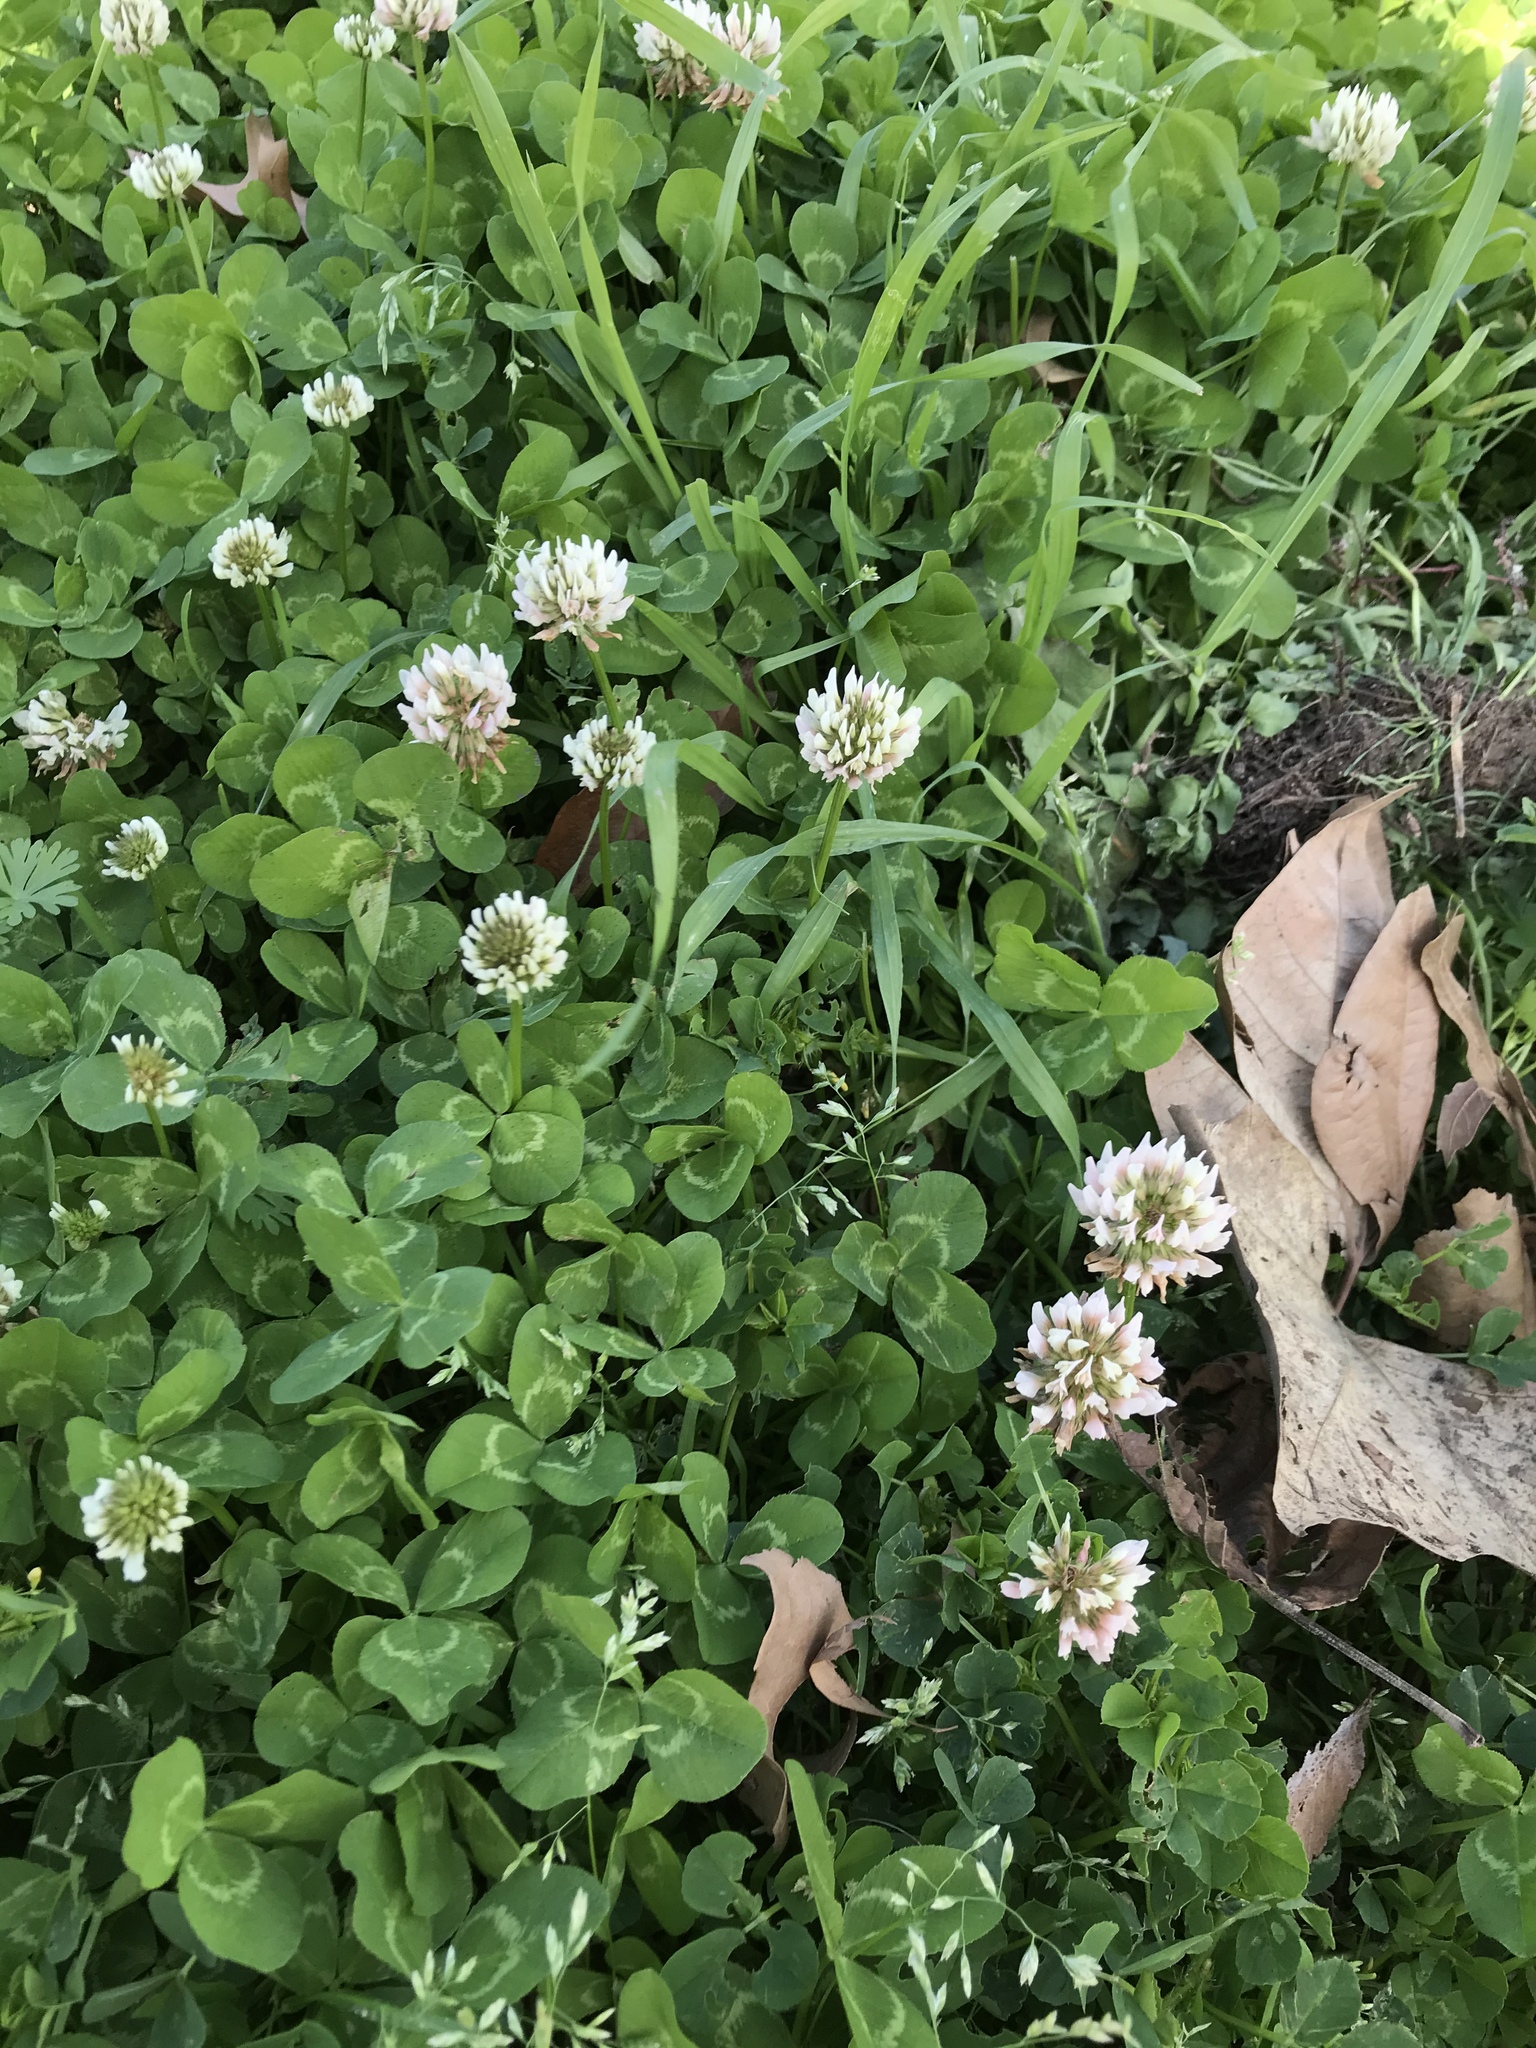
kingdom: Plantae
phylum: Tracheophyta
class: Magnoliopsida
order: Fabales
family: Fabaceae
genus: Trifolium
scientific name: Trifolium repens
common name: White clover
